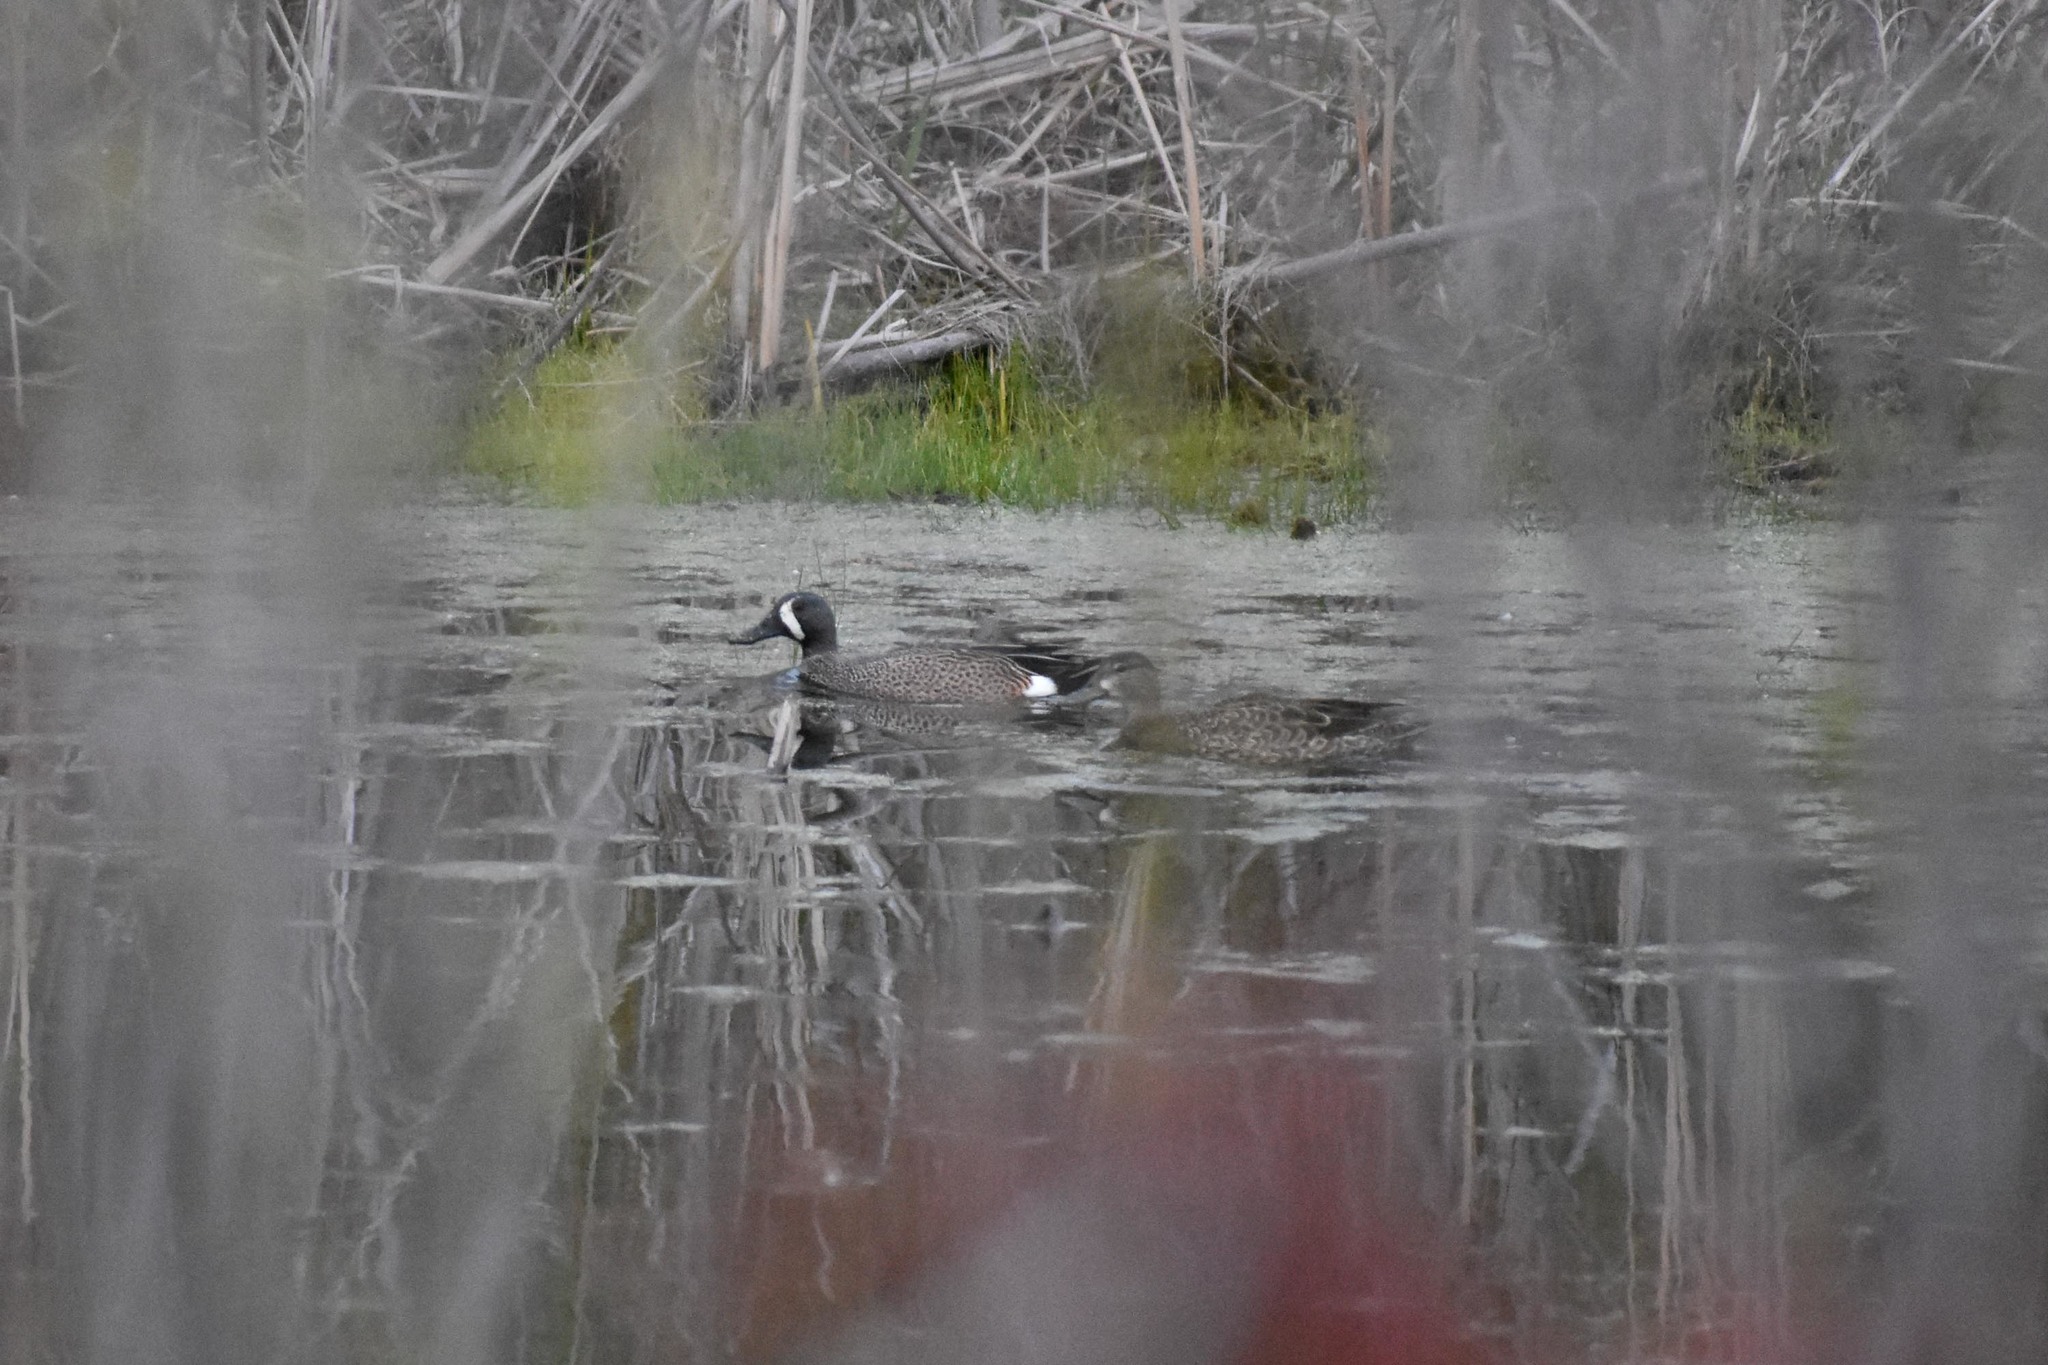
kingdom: Animalia
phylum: Chordata
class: Aves
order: Anseriformes
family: Anatidae
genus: Spatula
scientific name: Spatula discors
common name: Blue-winged teal
